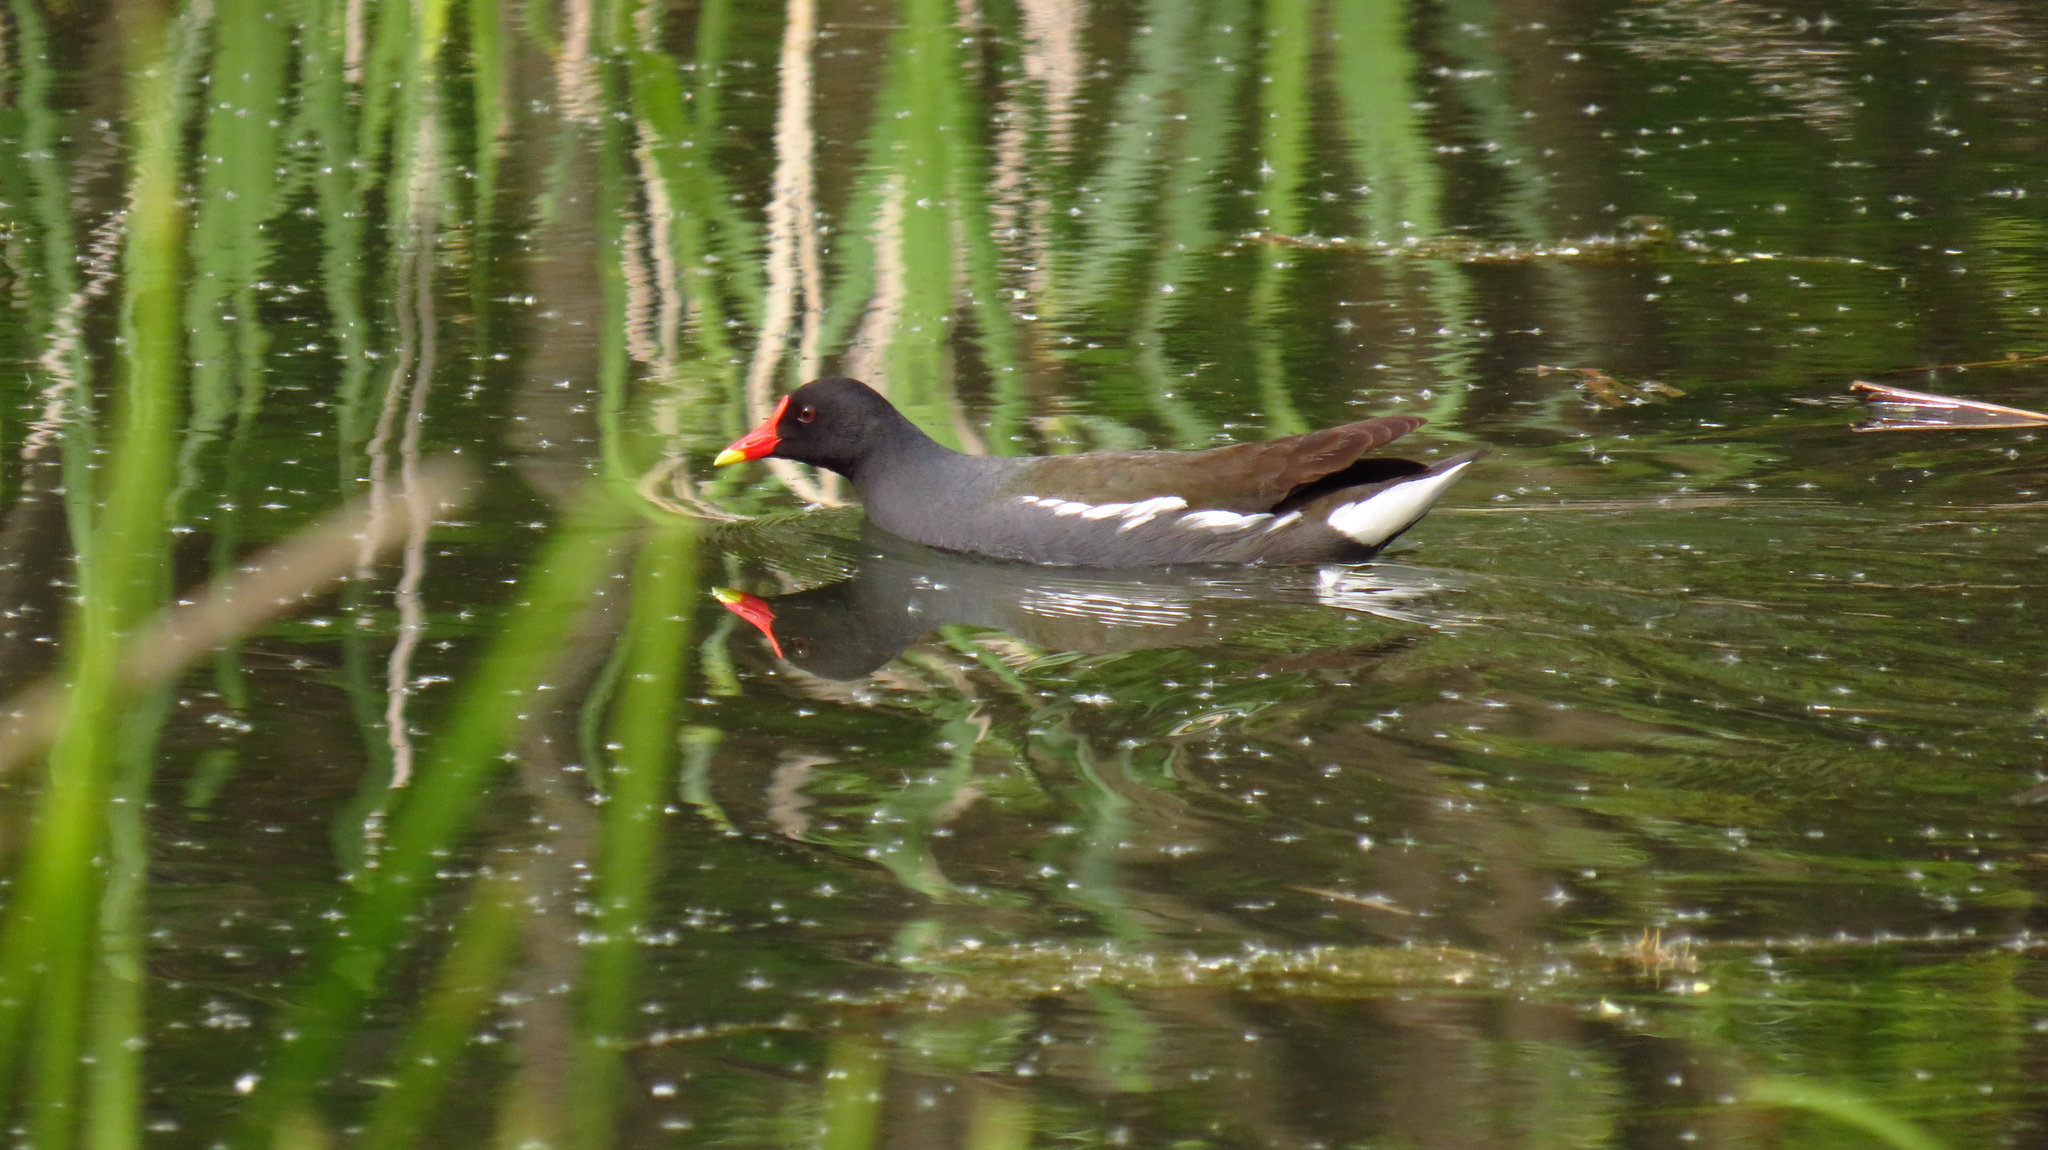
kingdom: Animalia
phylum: Chordata
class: Aves
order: Gruiformes
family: Rallidae
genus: Gallinula
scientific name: Gallinula chloropus
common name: Common moorhen
